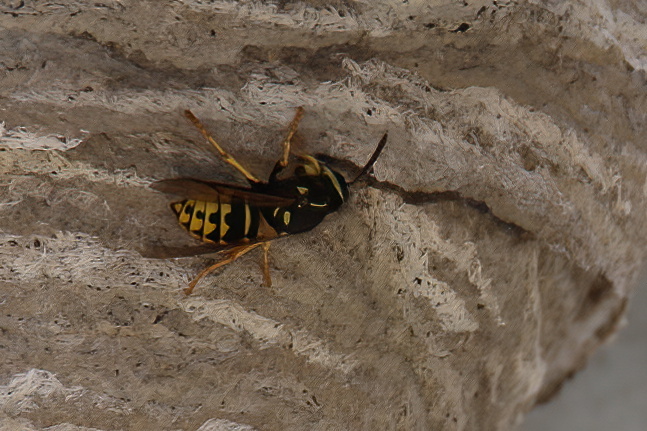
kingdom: Animalia
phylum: Arthropoda
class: Insecta
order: Hymenoptera
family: Vespidae
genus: Dolichovespula
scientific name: Dolichovespula arenaria
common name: Aerial yellowjacket
